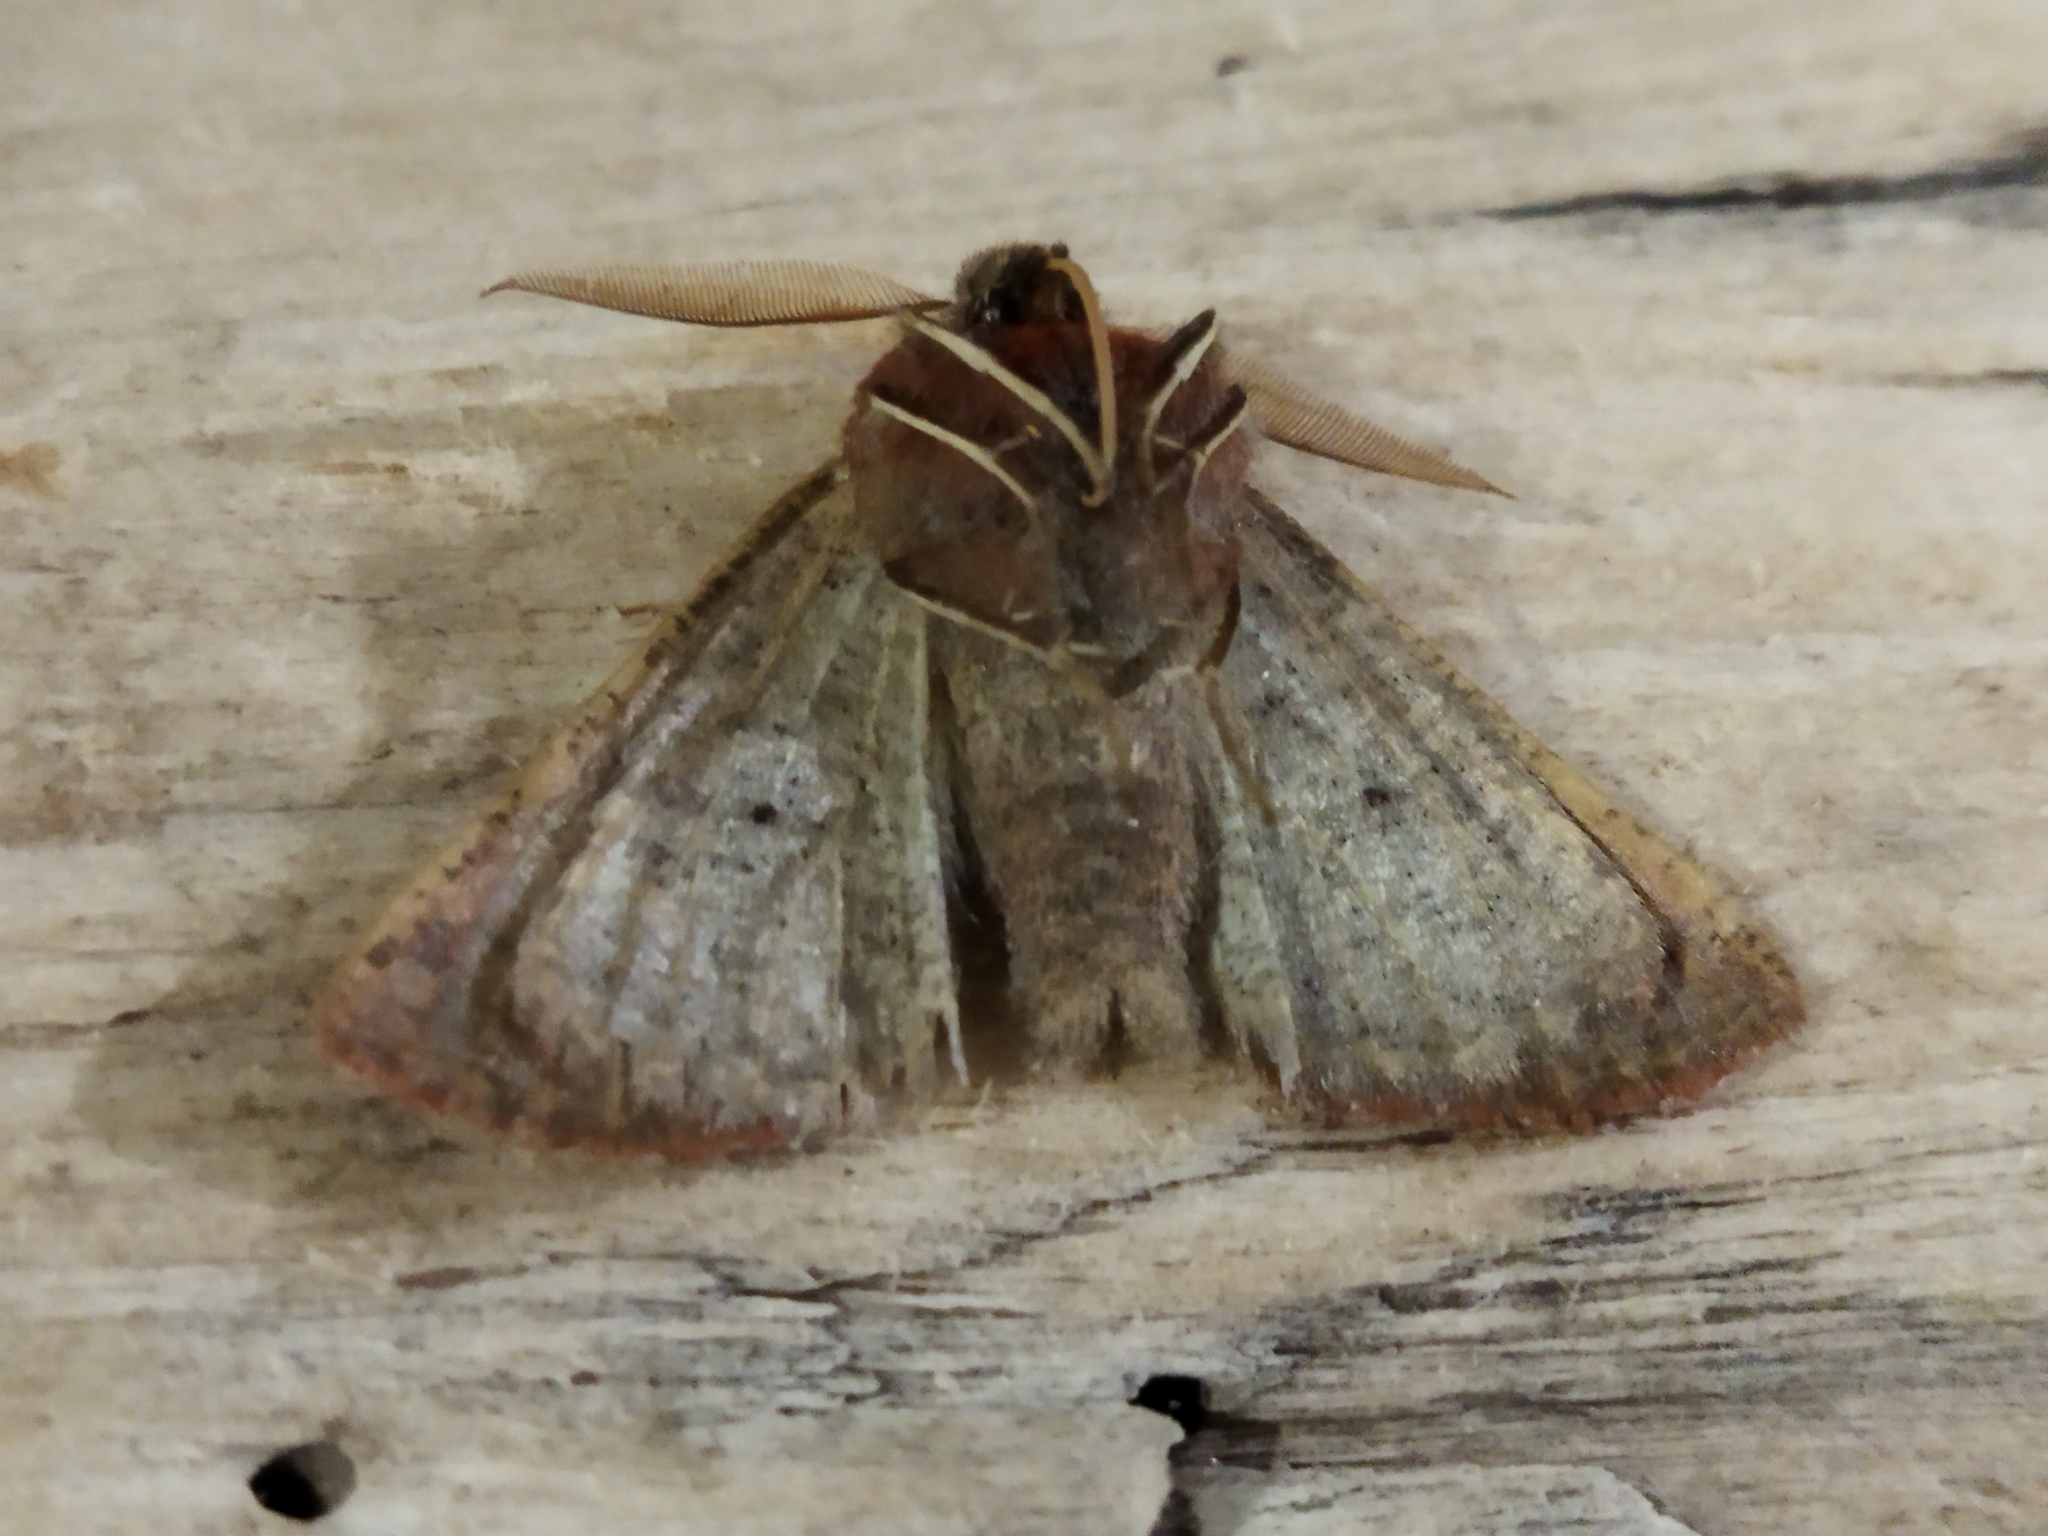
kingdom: Animalia
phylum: Arthropoda
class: Insecta
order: Lepidoptera
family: Geometridae
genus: Dasycorsa
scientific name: Dasycorsa modesta
